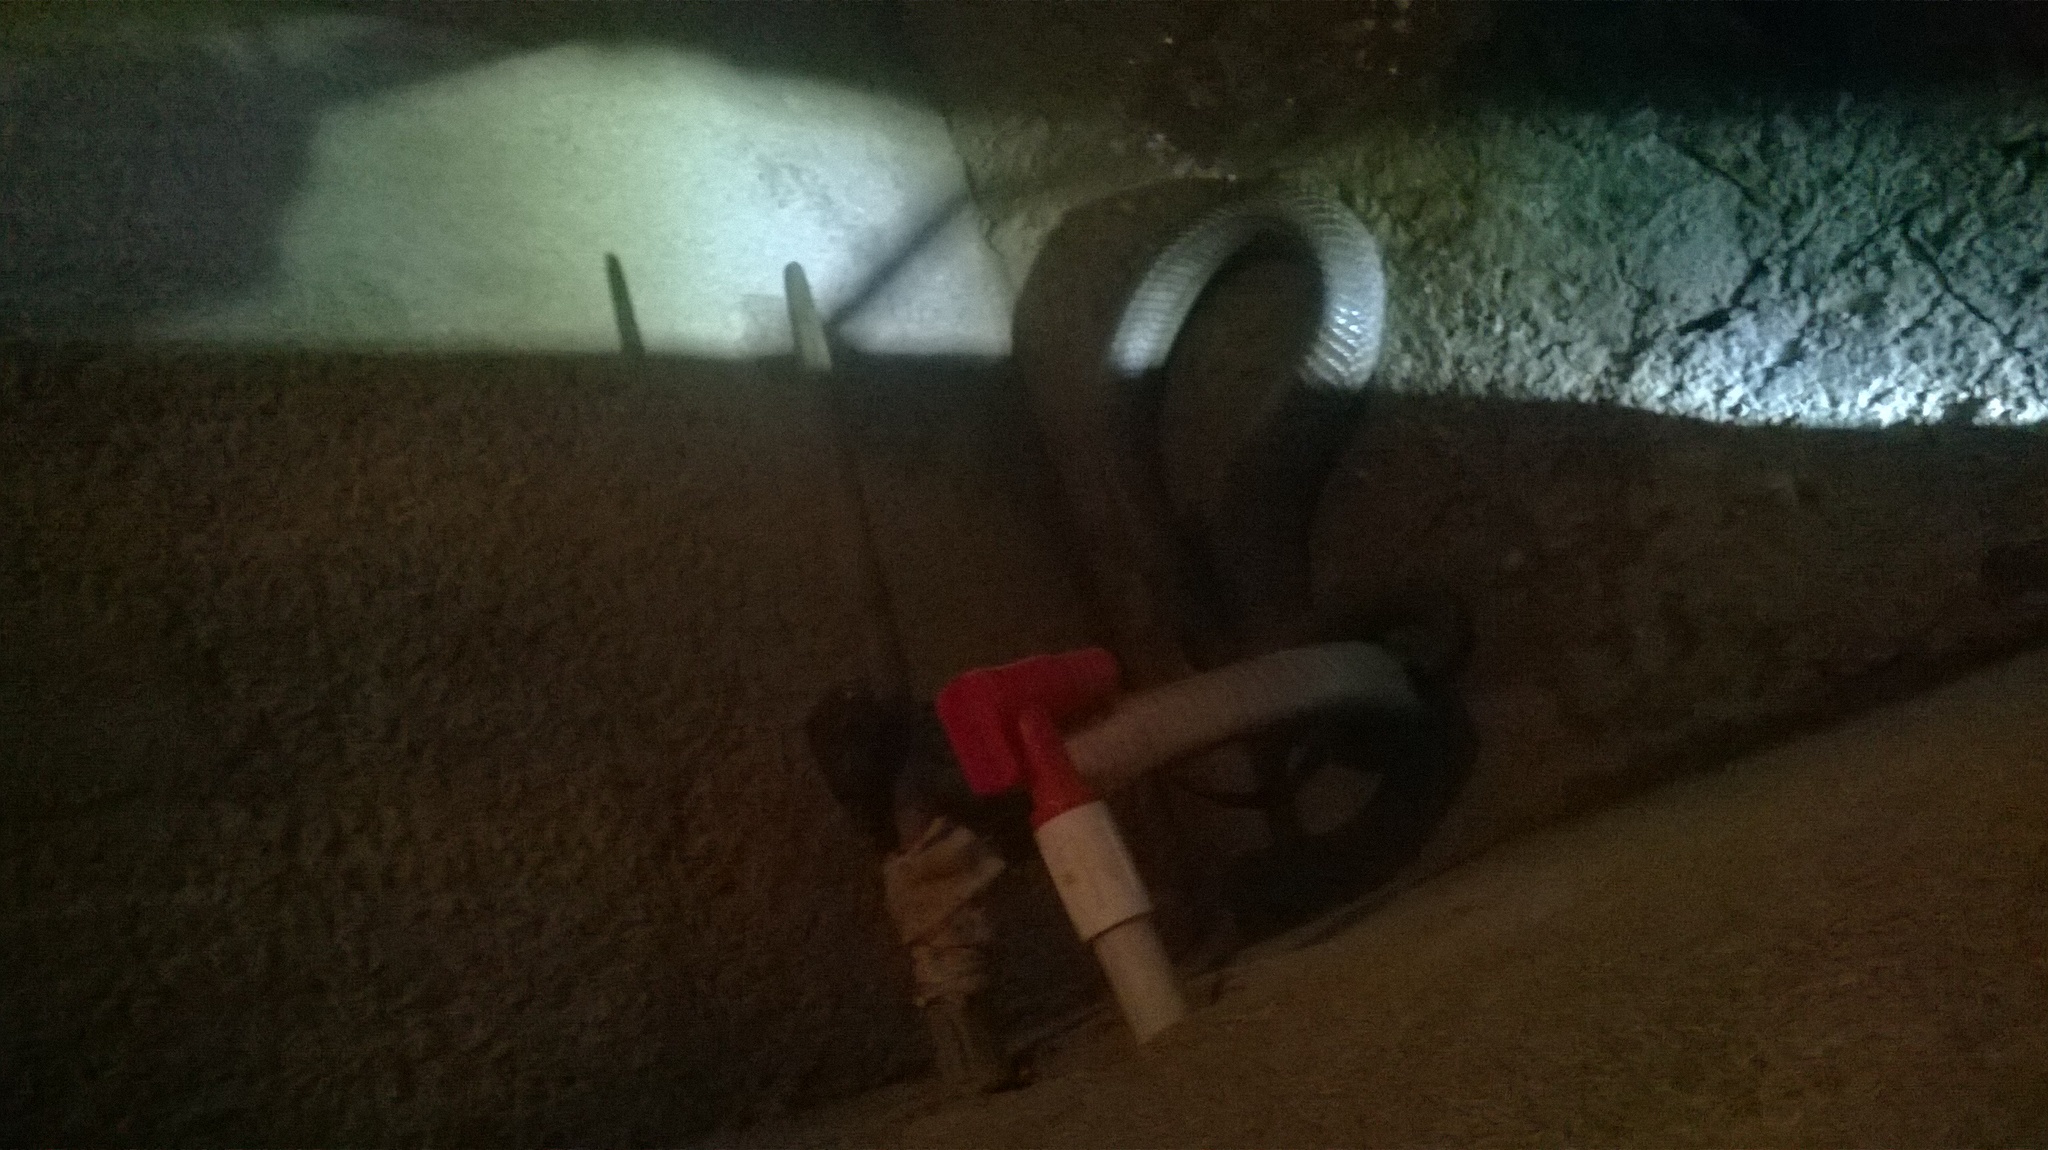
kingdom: Animalia
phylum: Chordata
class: Squamata
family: Elapidae
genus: Naja
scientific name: Naja naja
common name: Indian cobra
